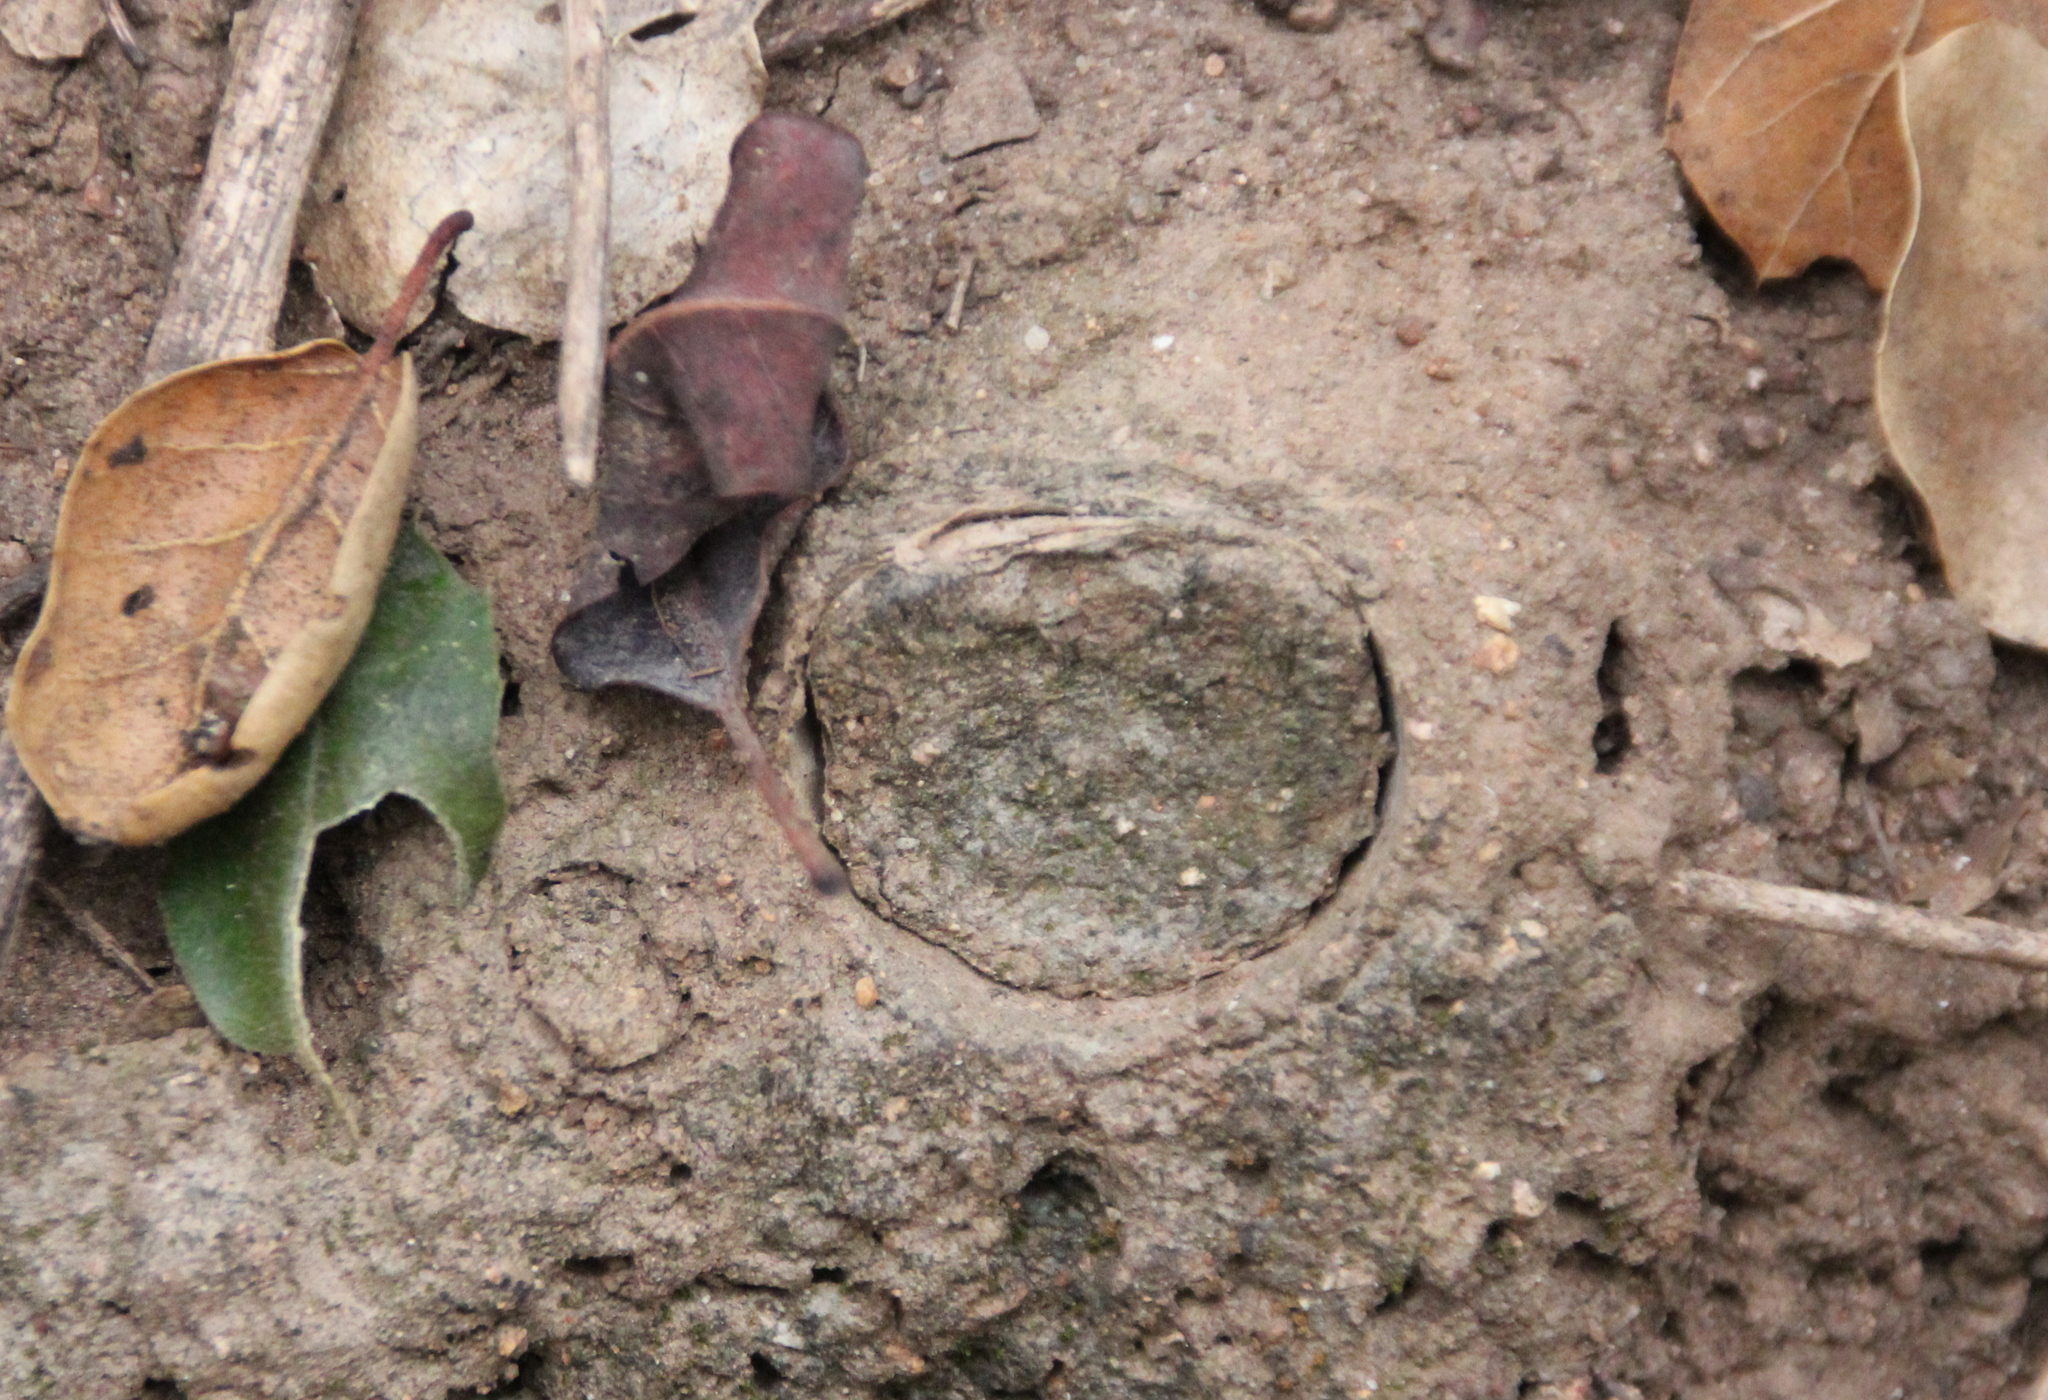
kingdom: Animalia
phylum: Arthropoda
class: Arachnida
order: Araneae
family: Halonoproctidae
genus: Bothriocyrtum
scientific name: Bothriocyrtum californicum
